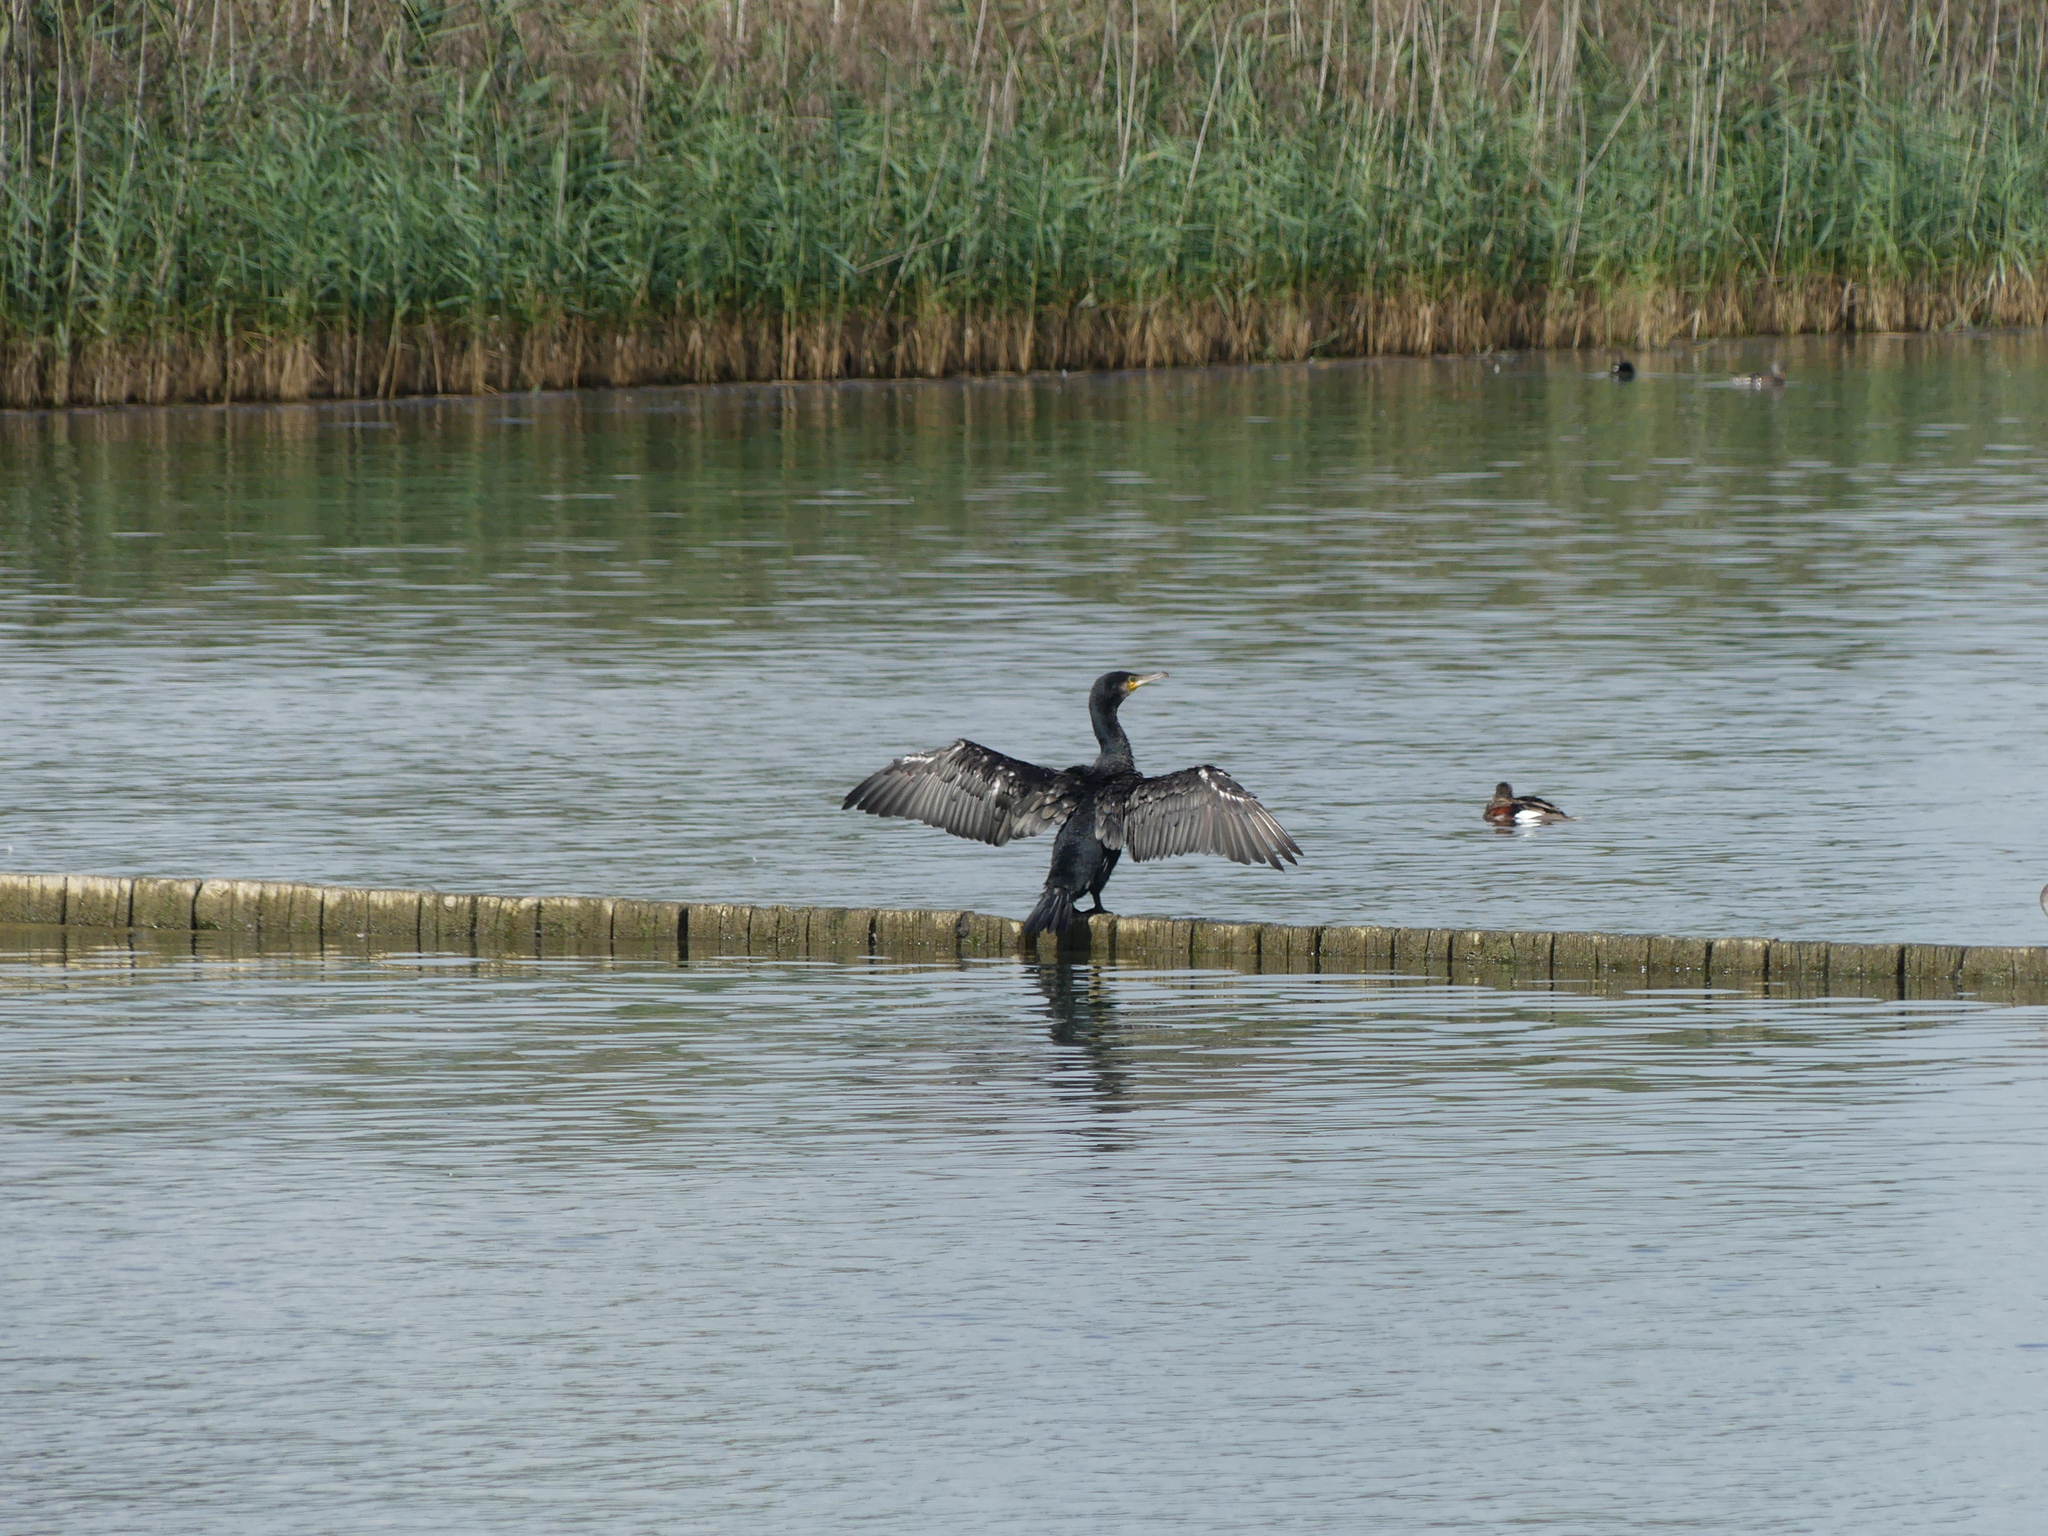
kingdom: Animalia
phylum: Chordata
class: Aves
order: Suliformes
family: Phalacrocoracidae
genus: Phalacrocorax
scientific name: Phalacrocorax carbo
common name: Great cormorant
